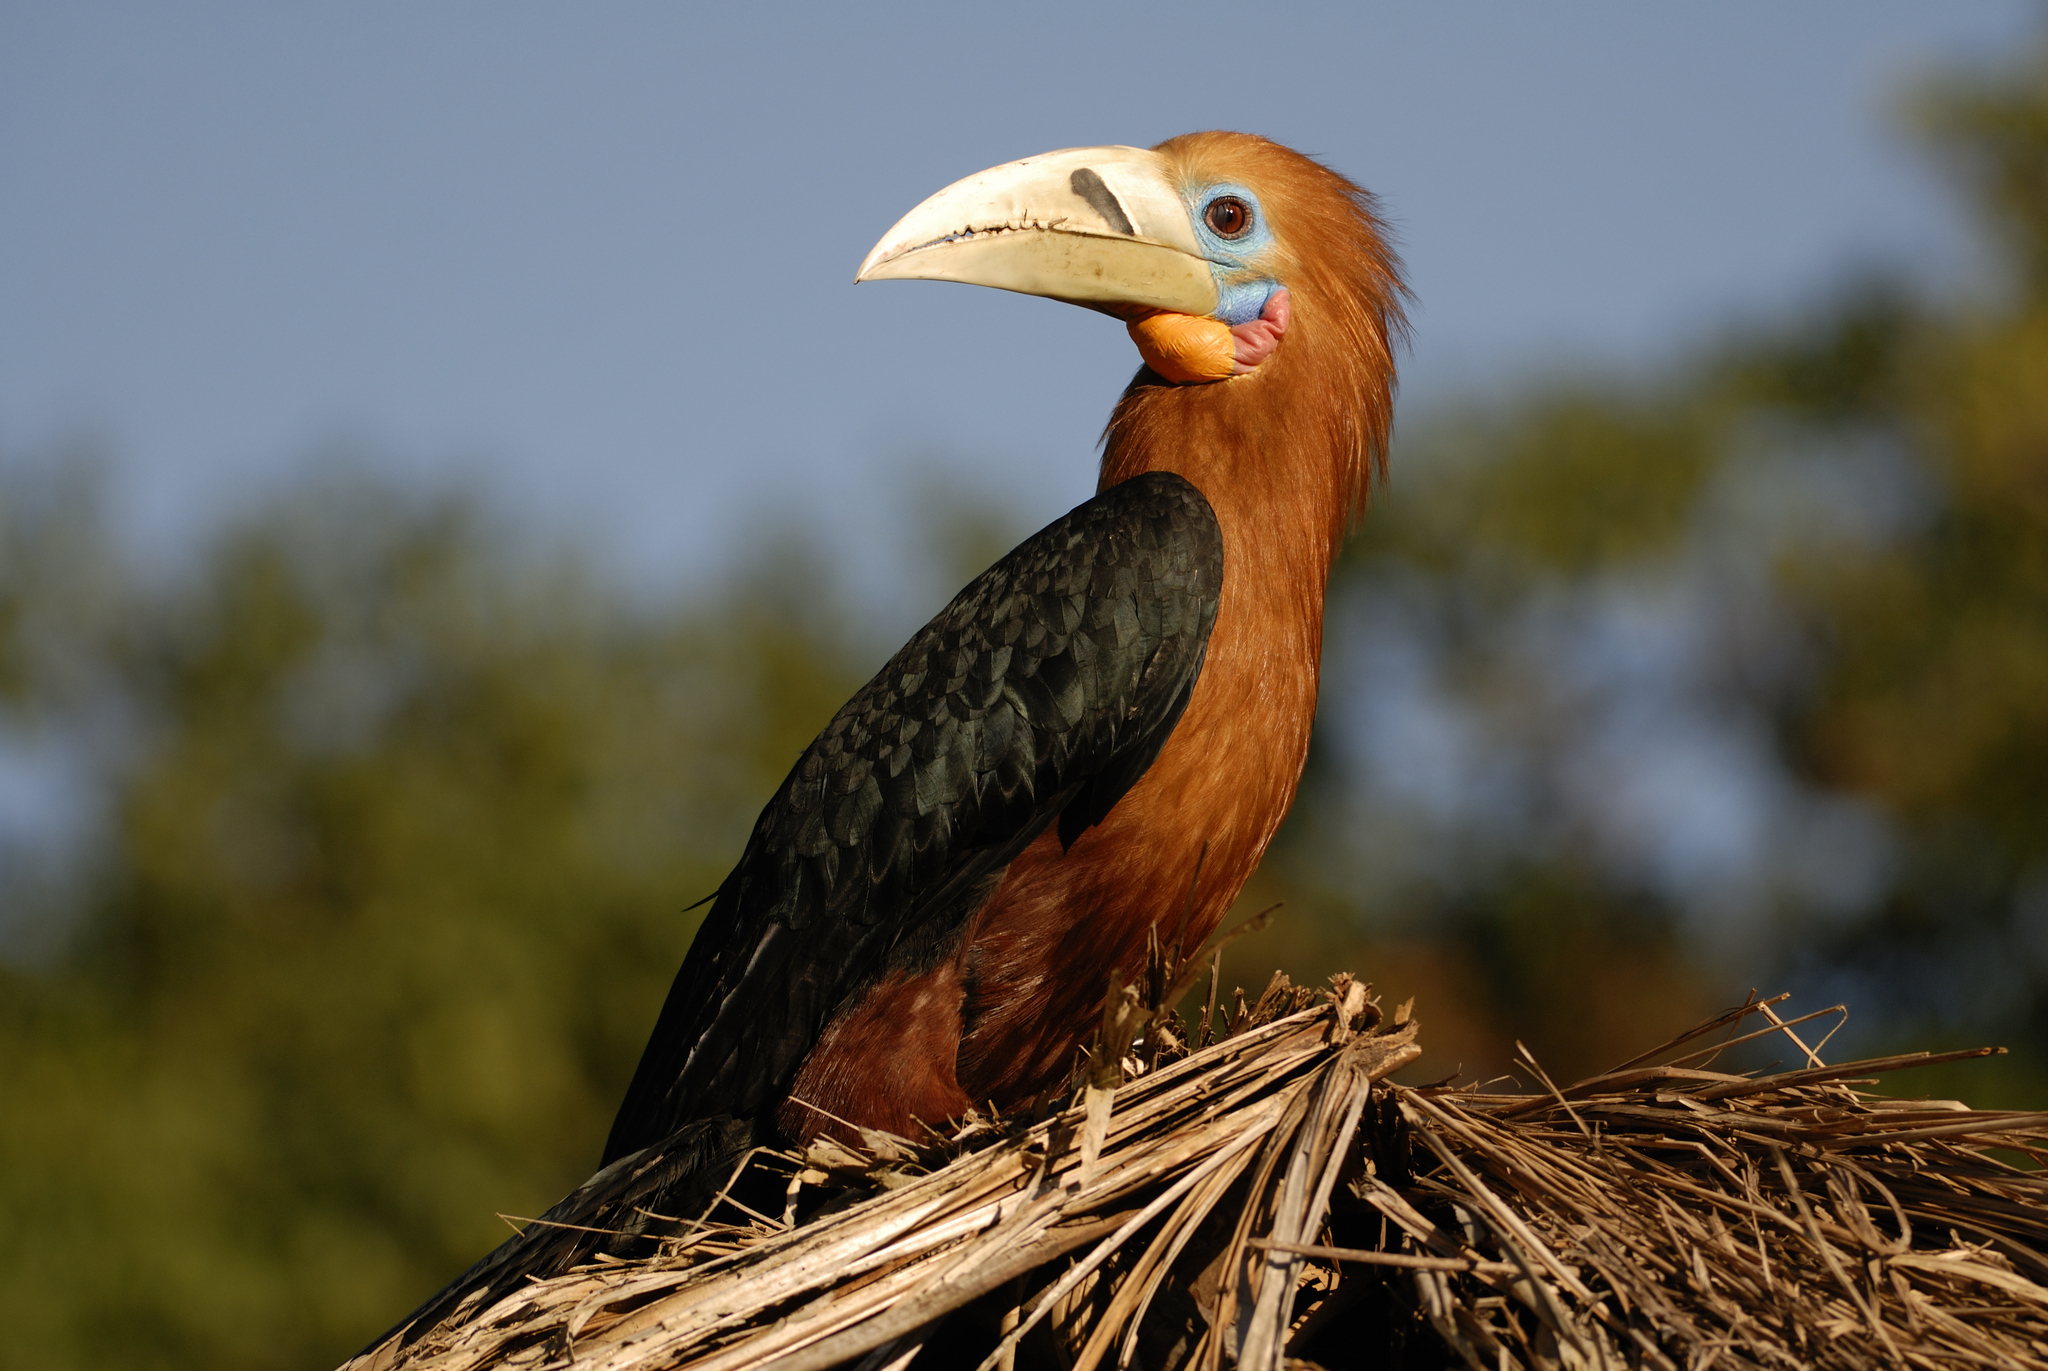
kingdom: Animalia
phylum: Chordata
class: Aves
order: Bucerotiformes
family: Bucerotidae
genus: Aceros
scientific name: Aceros nipalensis
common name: Rufous-necked hornbill
